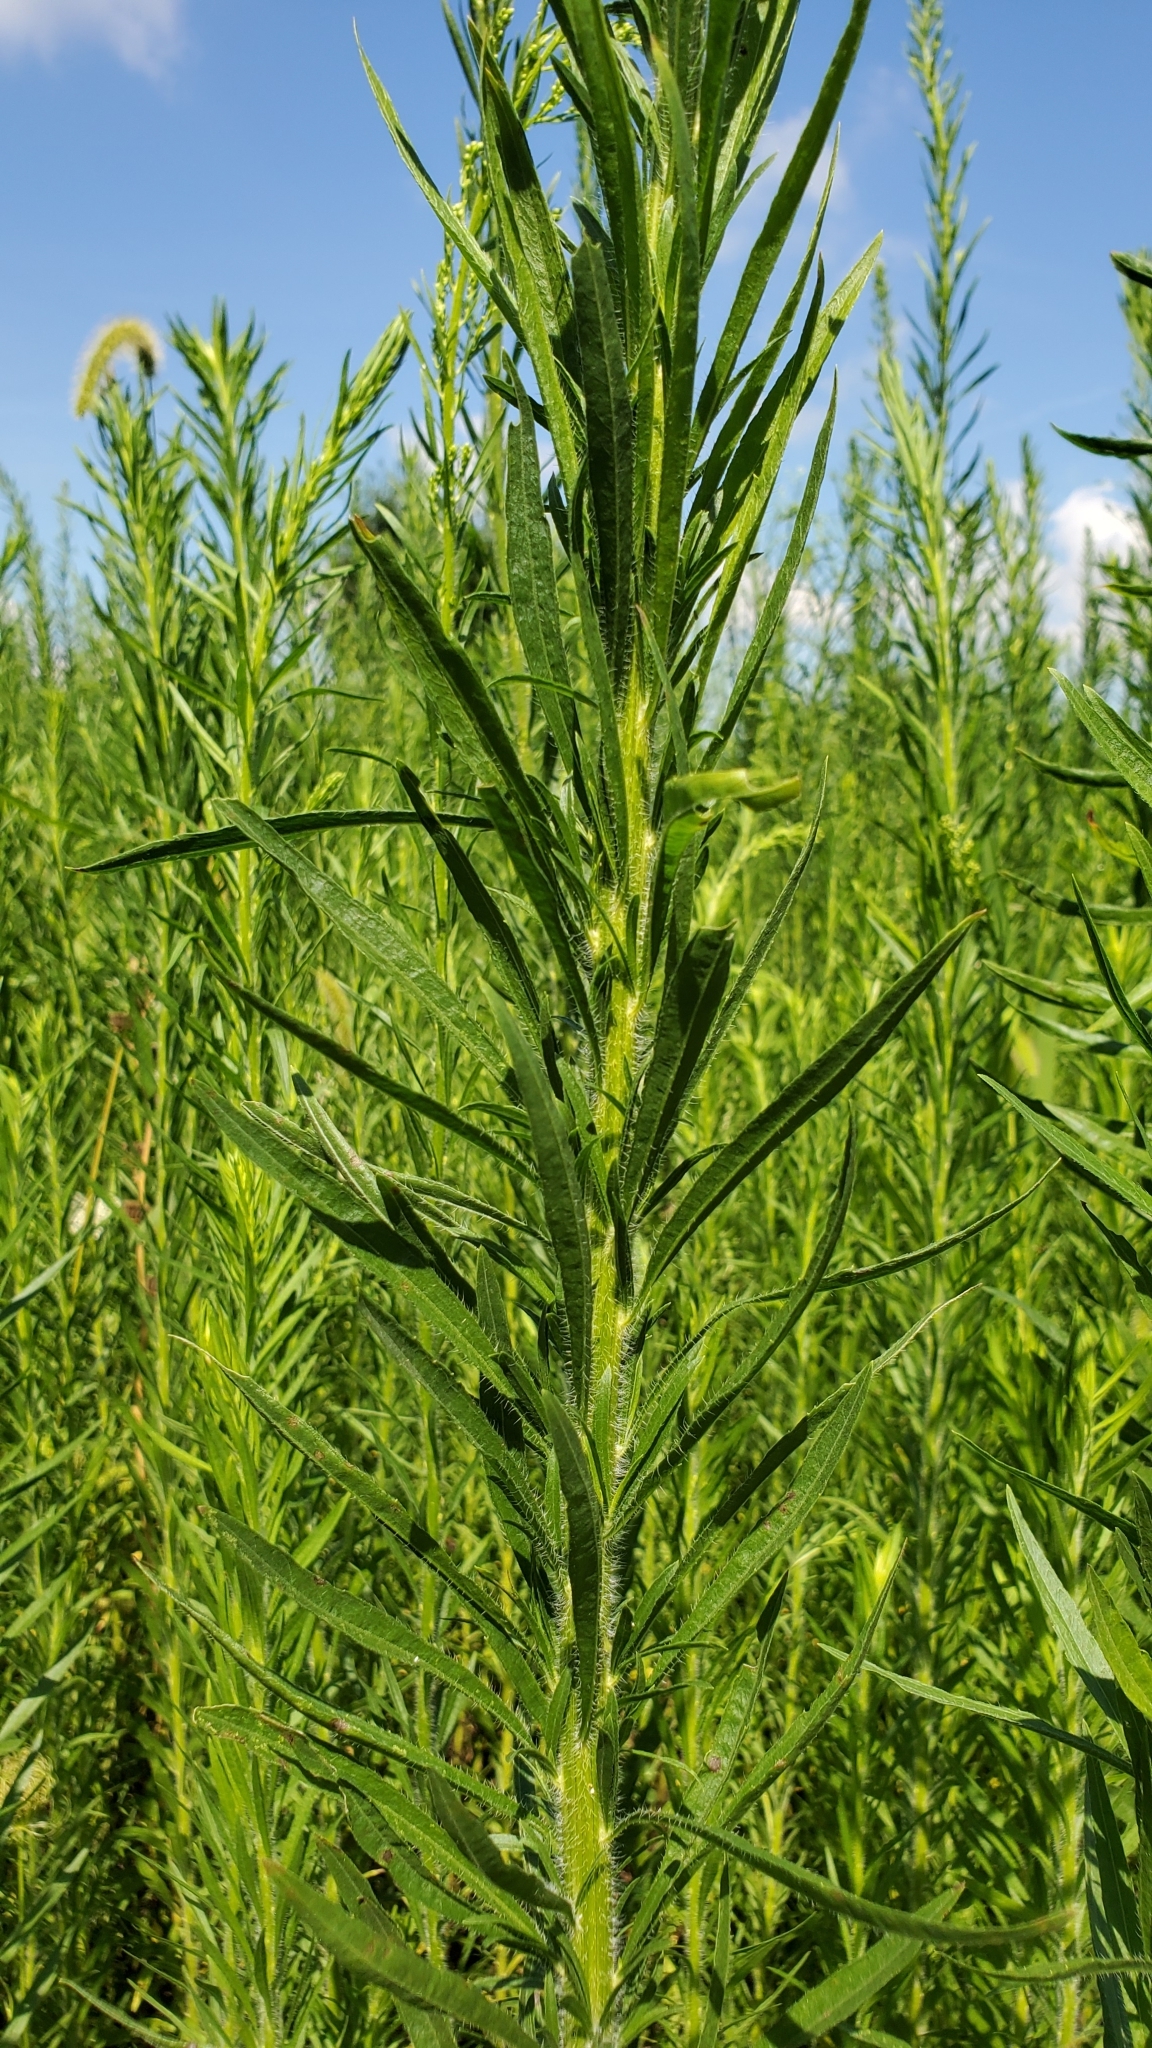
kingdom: Plantae
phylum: Tracheophyta
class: Magnoliopsida
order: Asterales
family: Asteraceae
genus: Erigeron
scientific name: Erigeron canadensis
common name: Canadian fleabane
